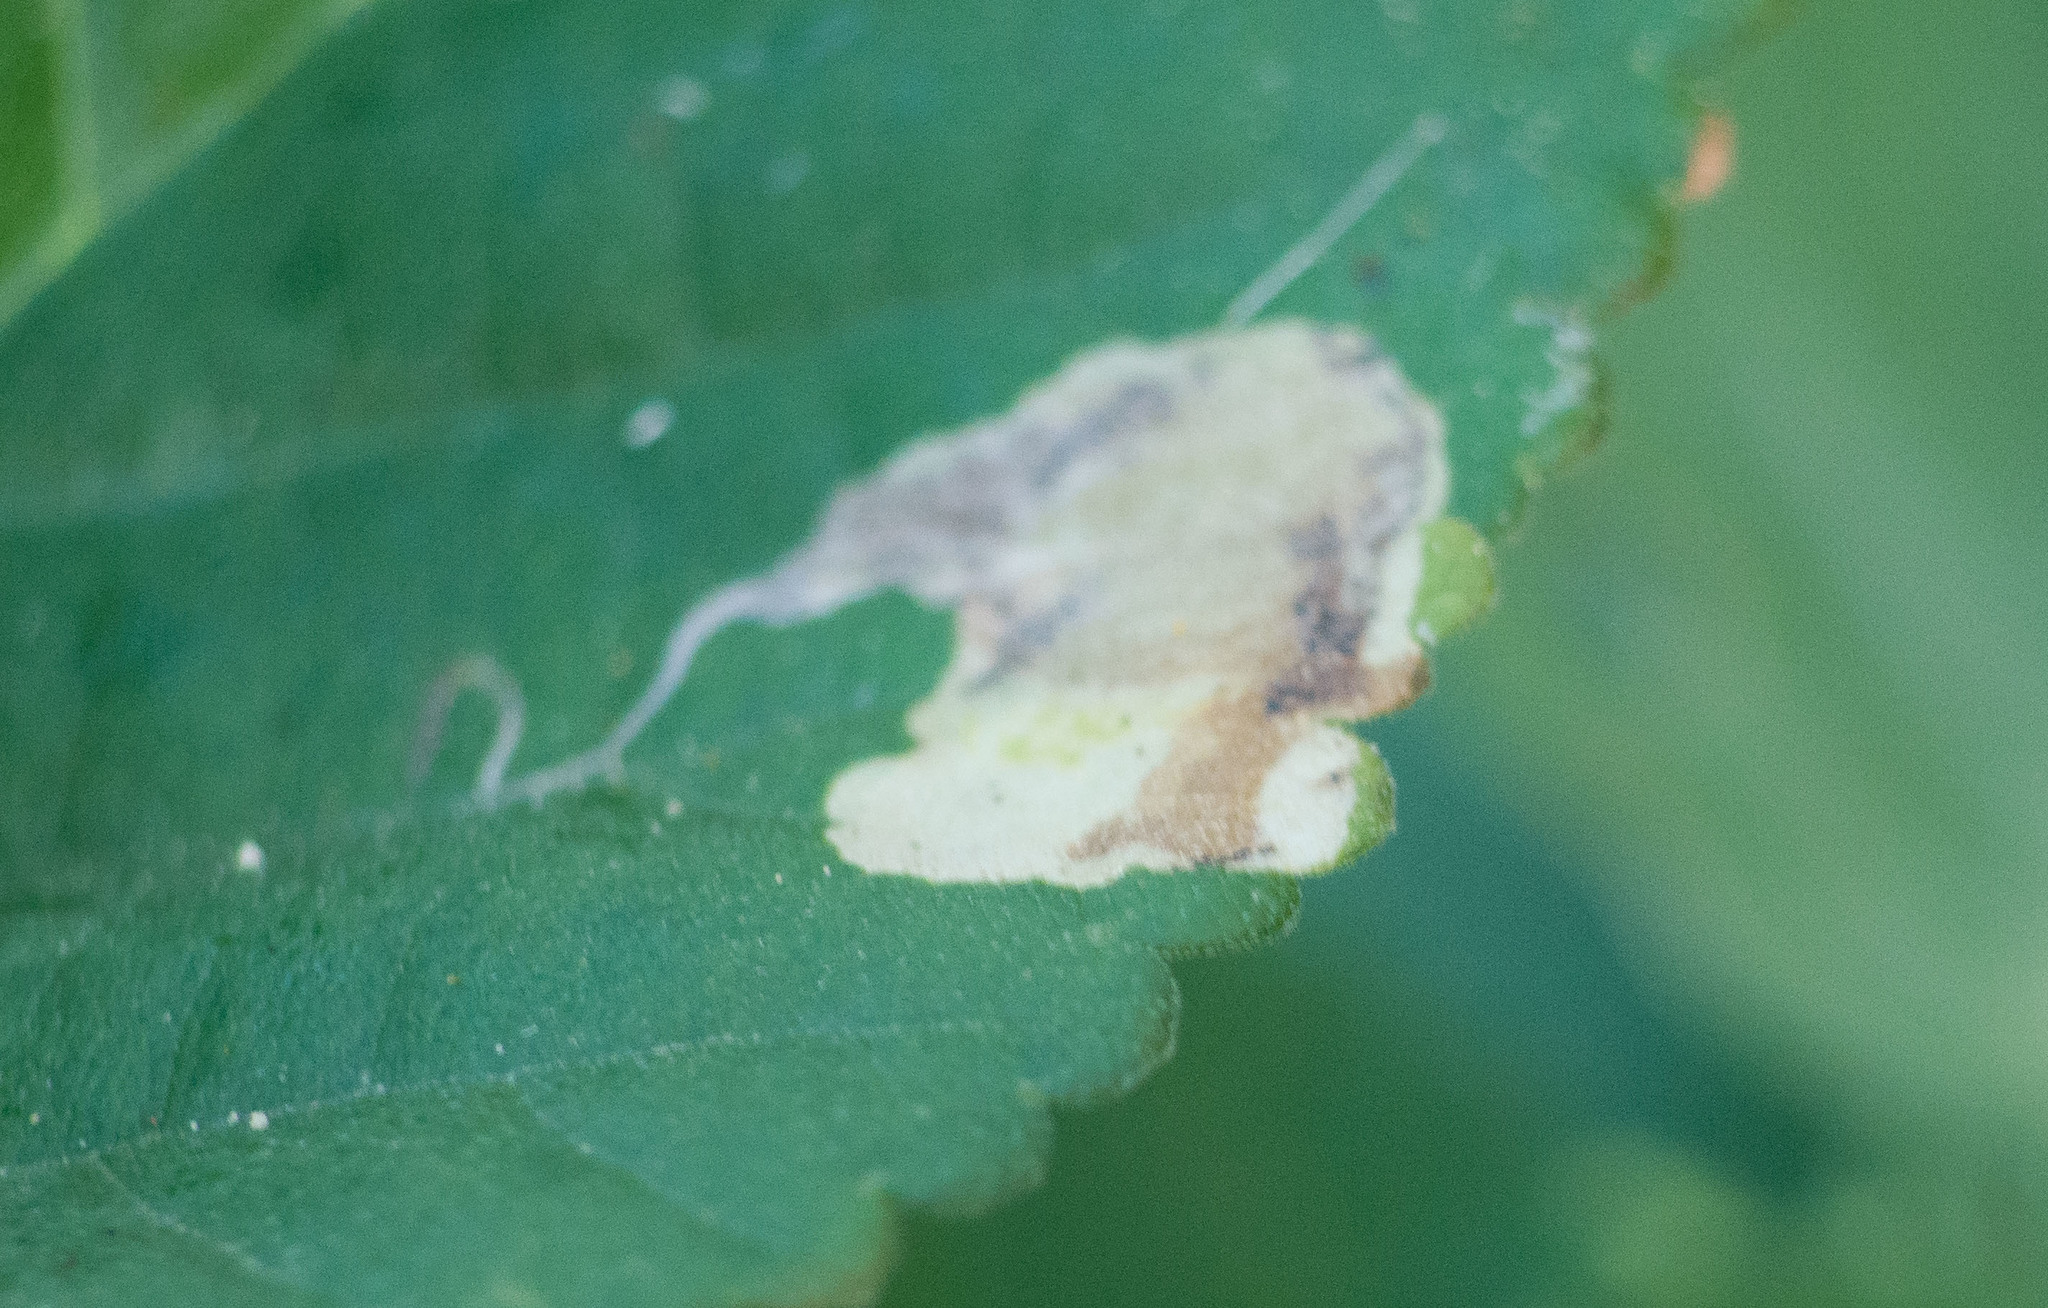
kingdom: Animalia
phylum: Arthropoda
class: Insecta
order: Lepidoptera
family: Gracillariidae
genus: Philodoria
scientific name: Philodoria marginestrigata
